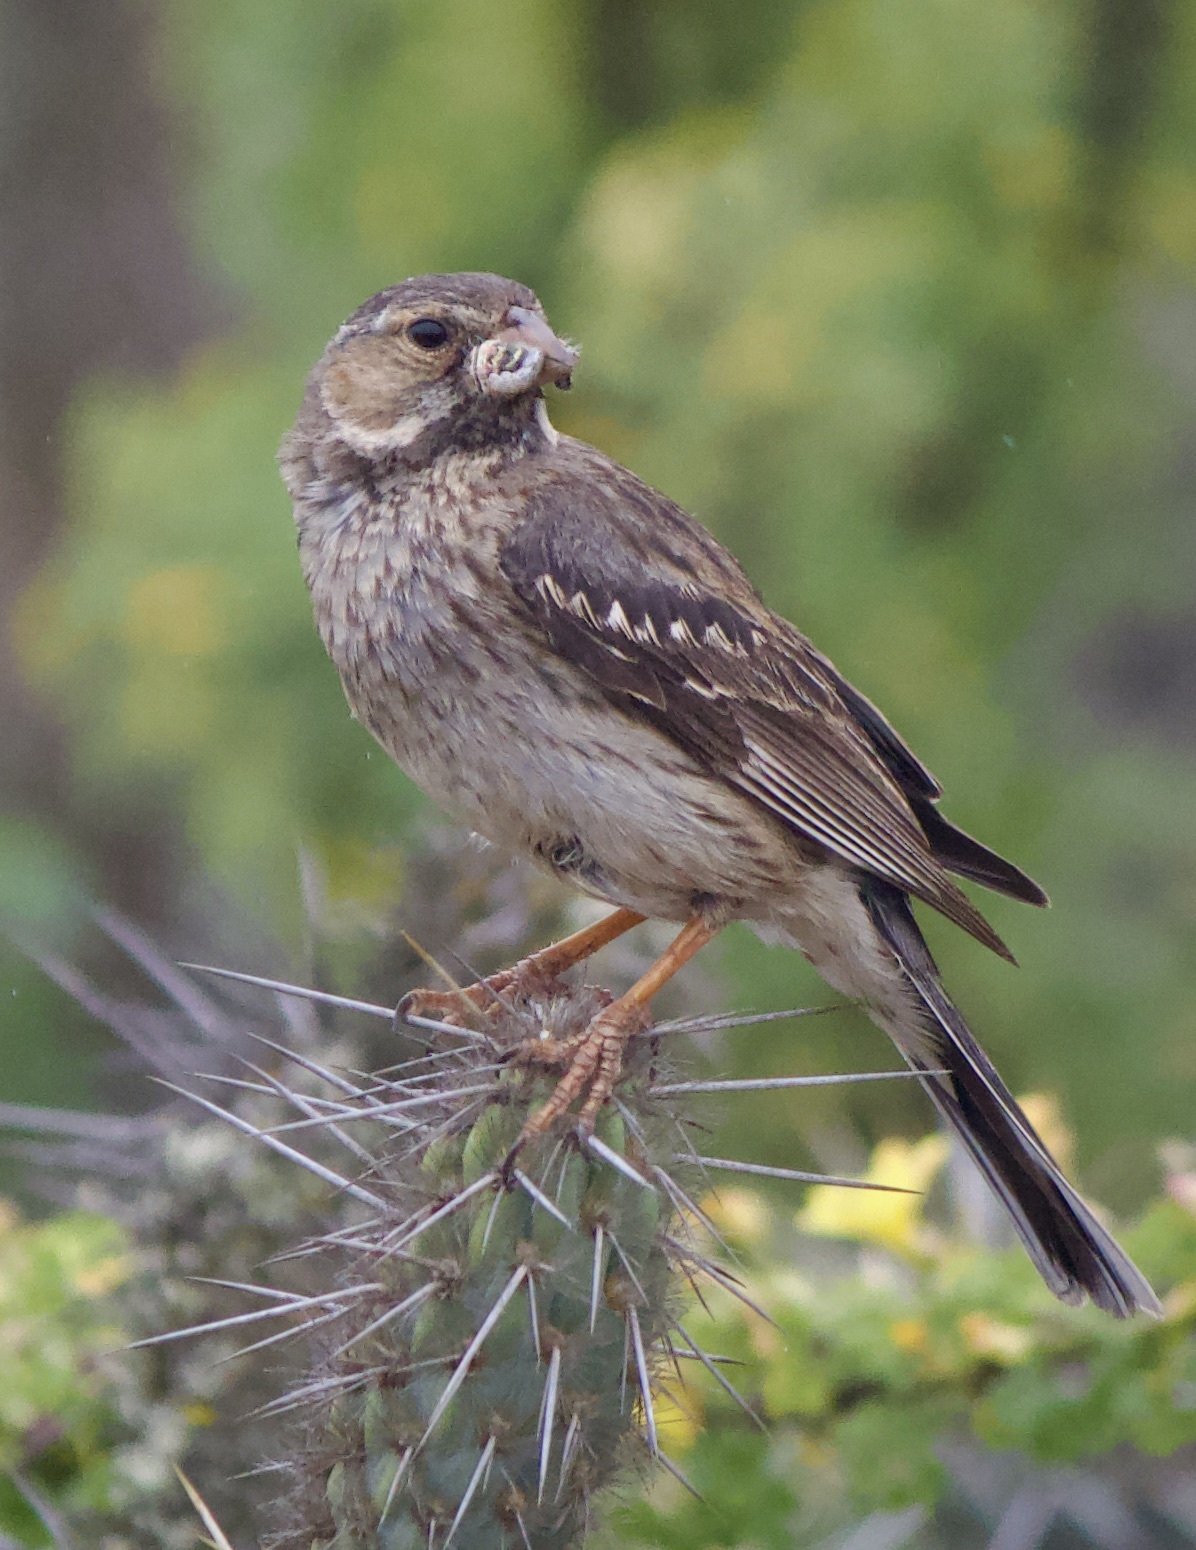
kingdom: Animalia
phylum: Chordata
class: Aves
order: Passeriformes
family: Thraupidae
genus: Rhopospina
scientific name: Rhopospina fruticeti
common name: Mourning sierra finch
